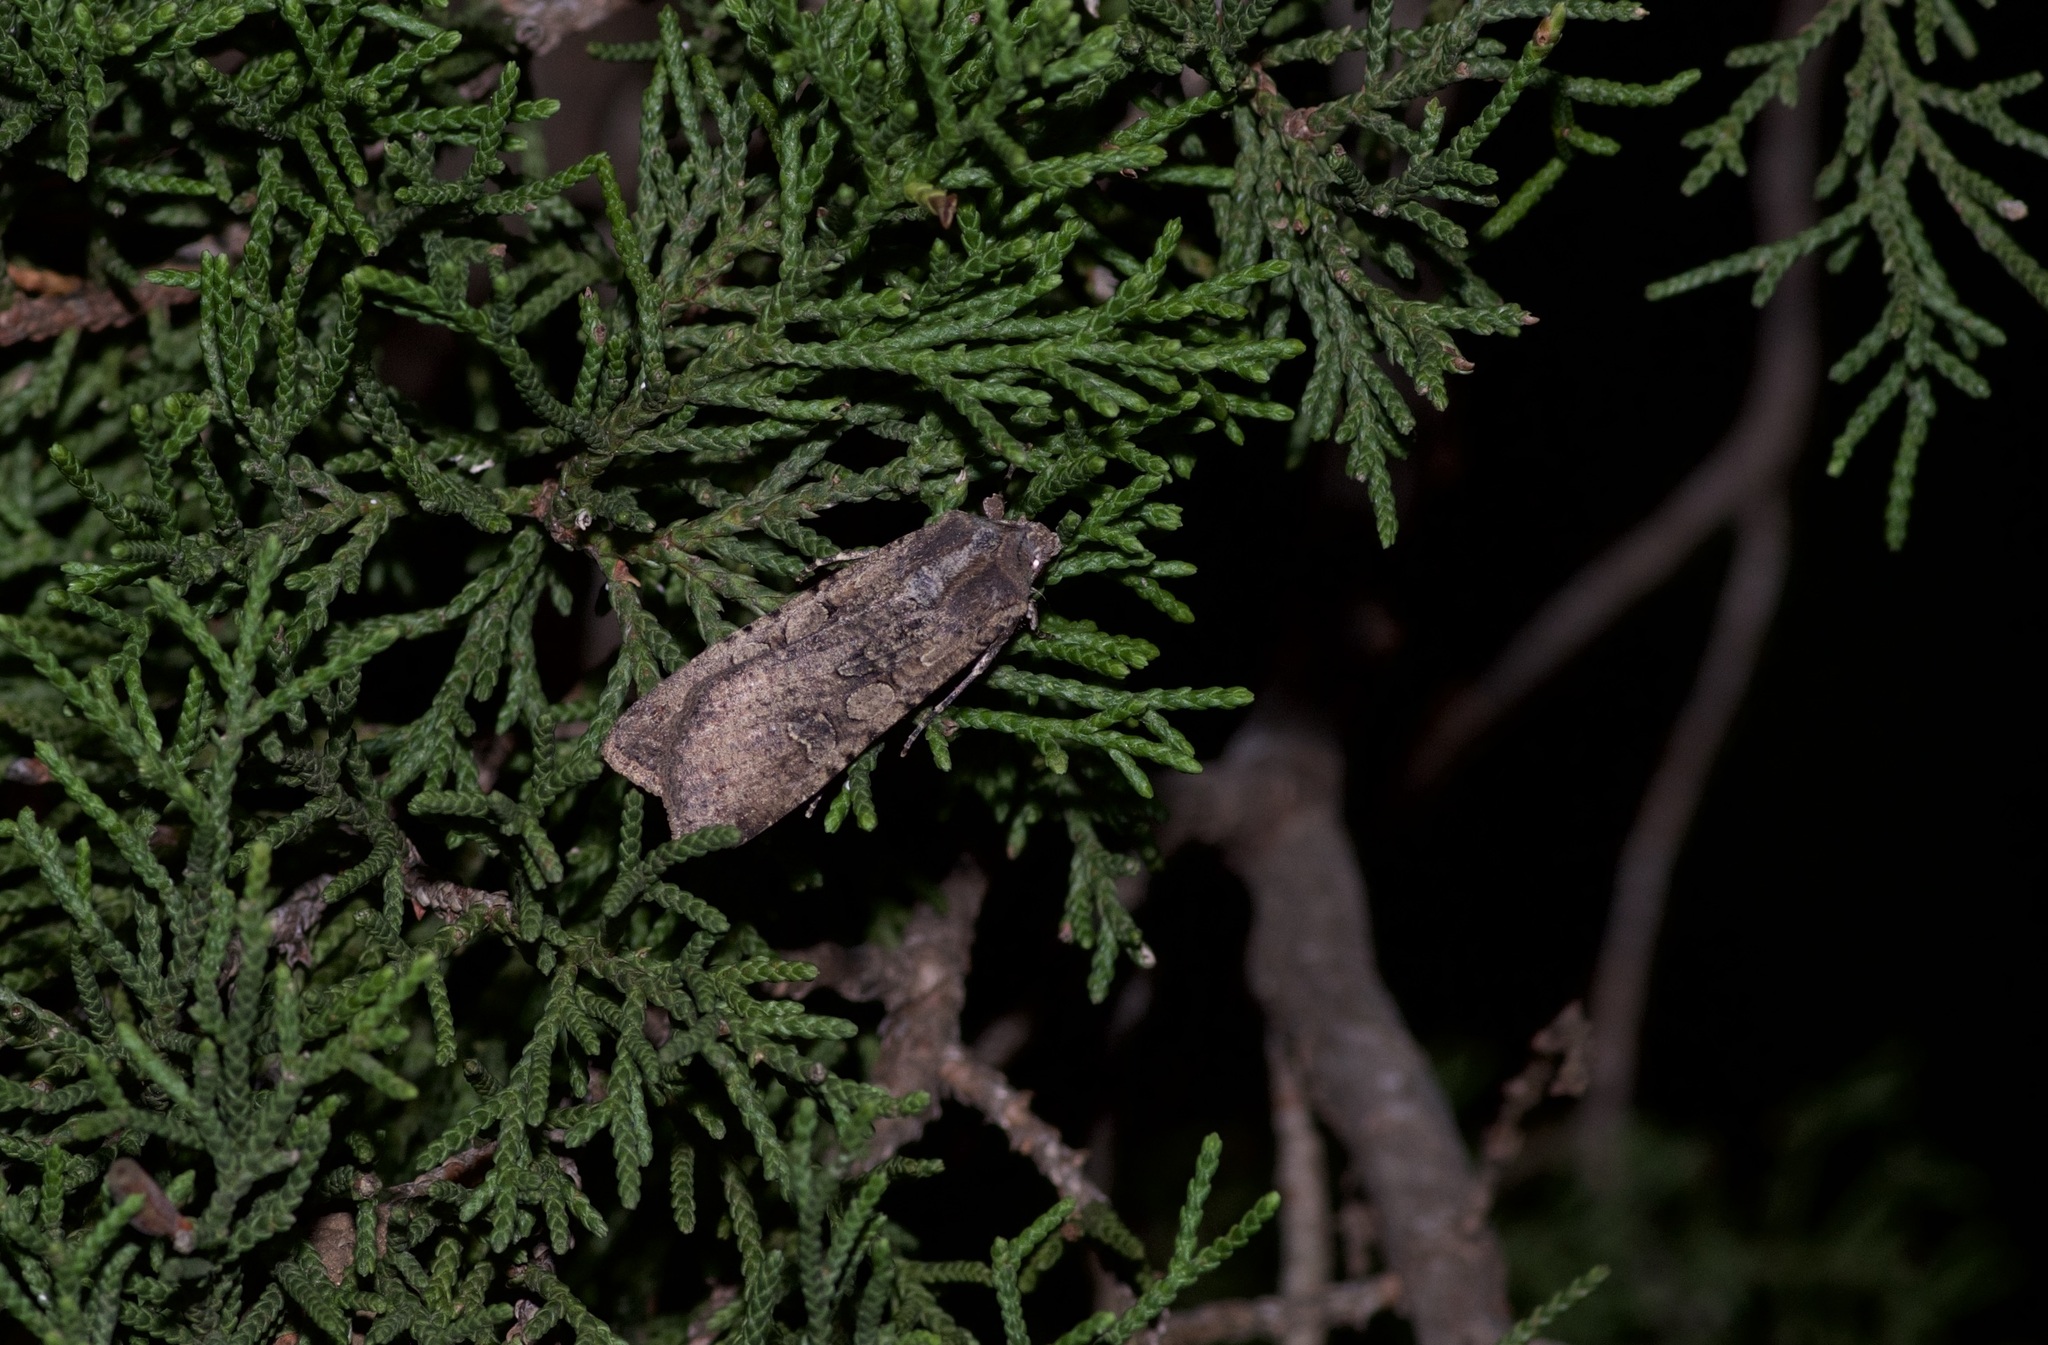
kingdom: Animalia
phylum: Arthropoda
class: Insecta
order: Lepidoptera
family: Noctuidae
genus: Peridroma
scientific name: Peridroma saucia
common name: Pearly underwing
